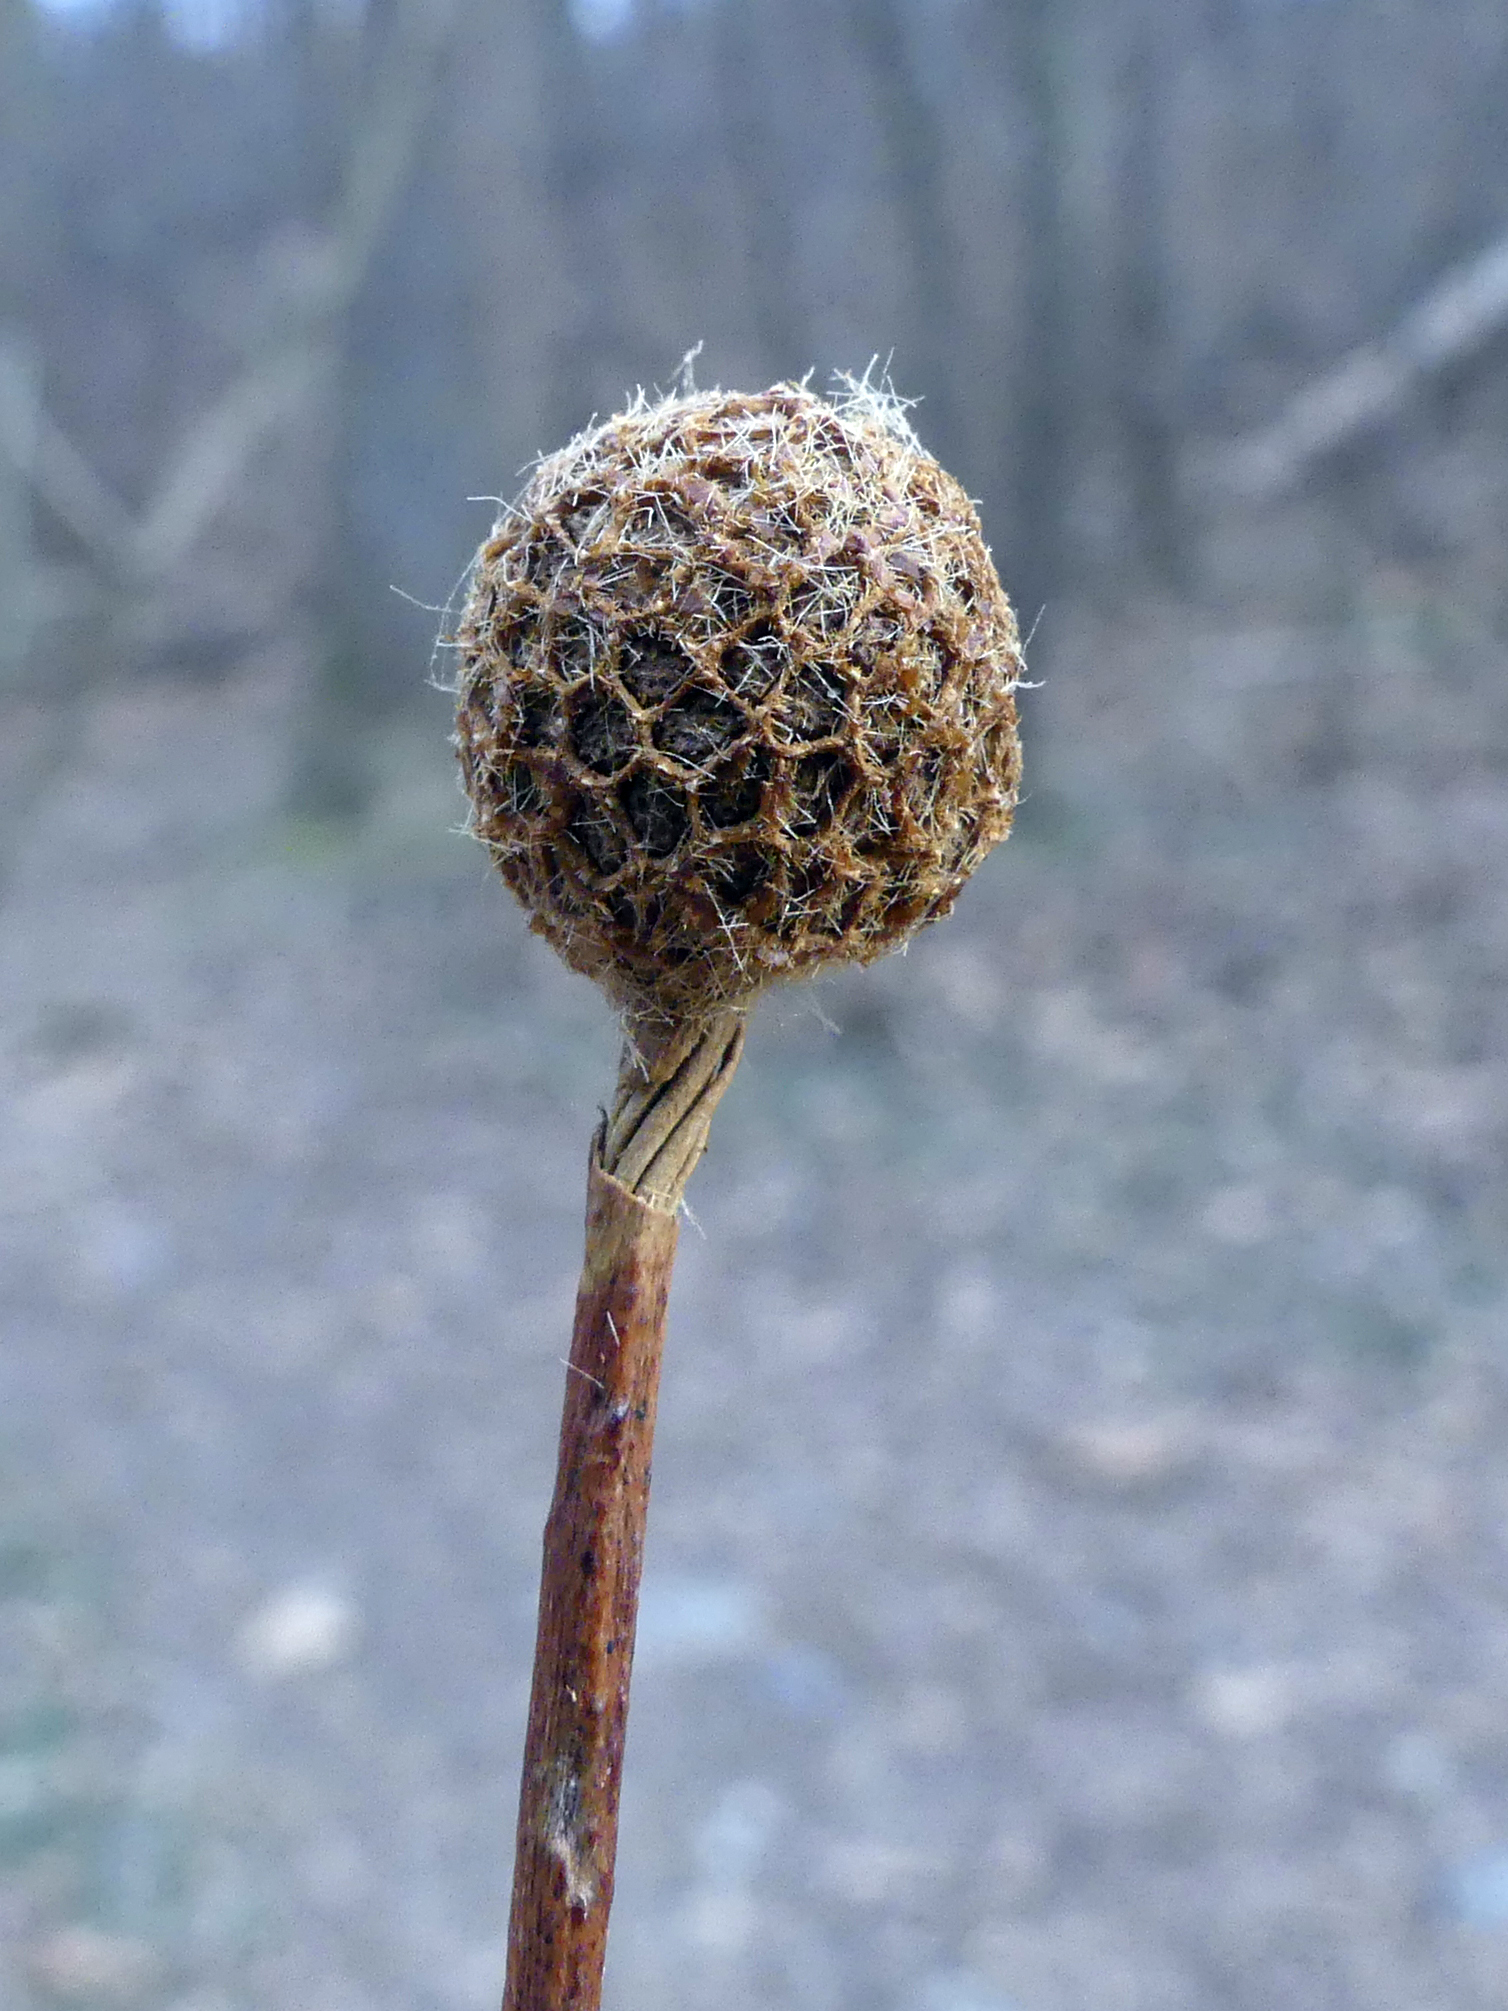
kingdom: Plantae
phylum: Tracheophyta
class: Magnoliopsida
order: Proteales
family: Platanaceae
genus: Platanus
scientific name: Platanus occidentalis
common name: American sycamore
